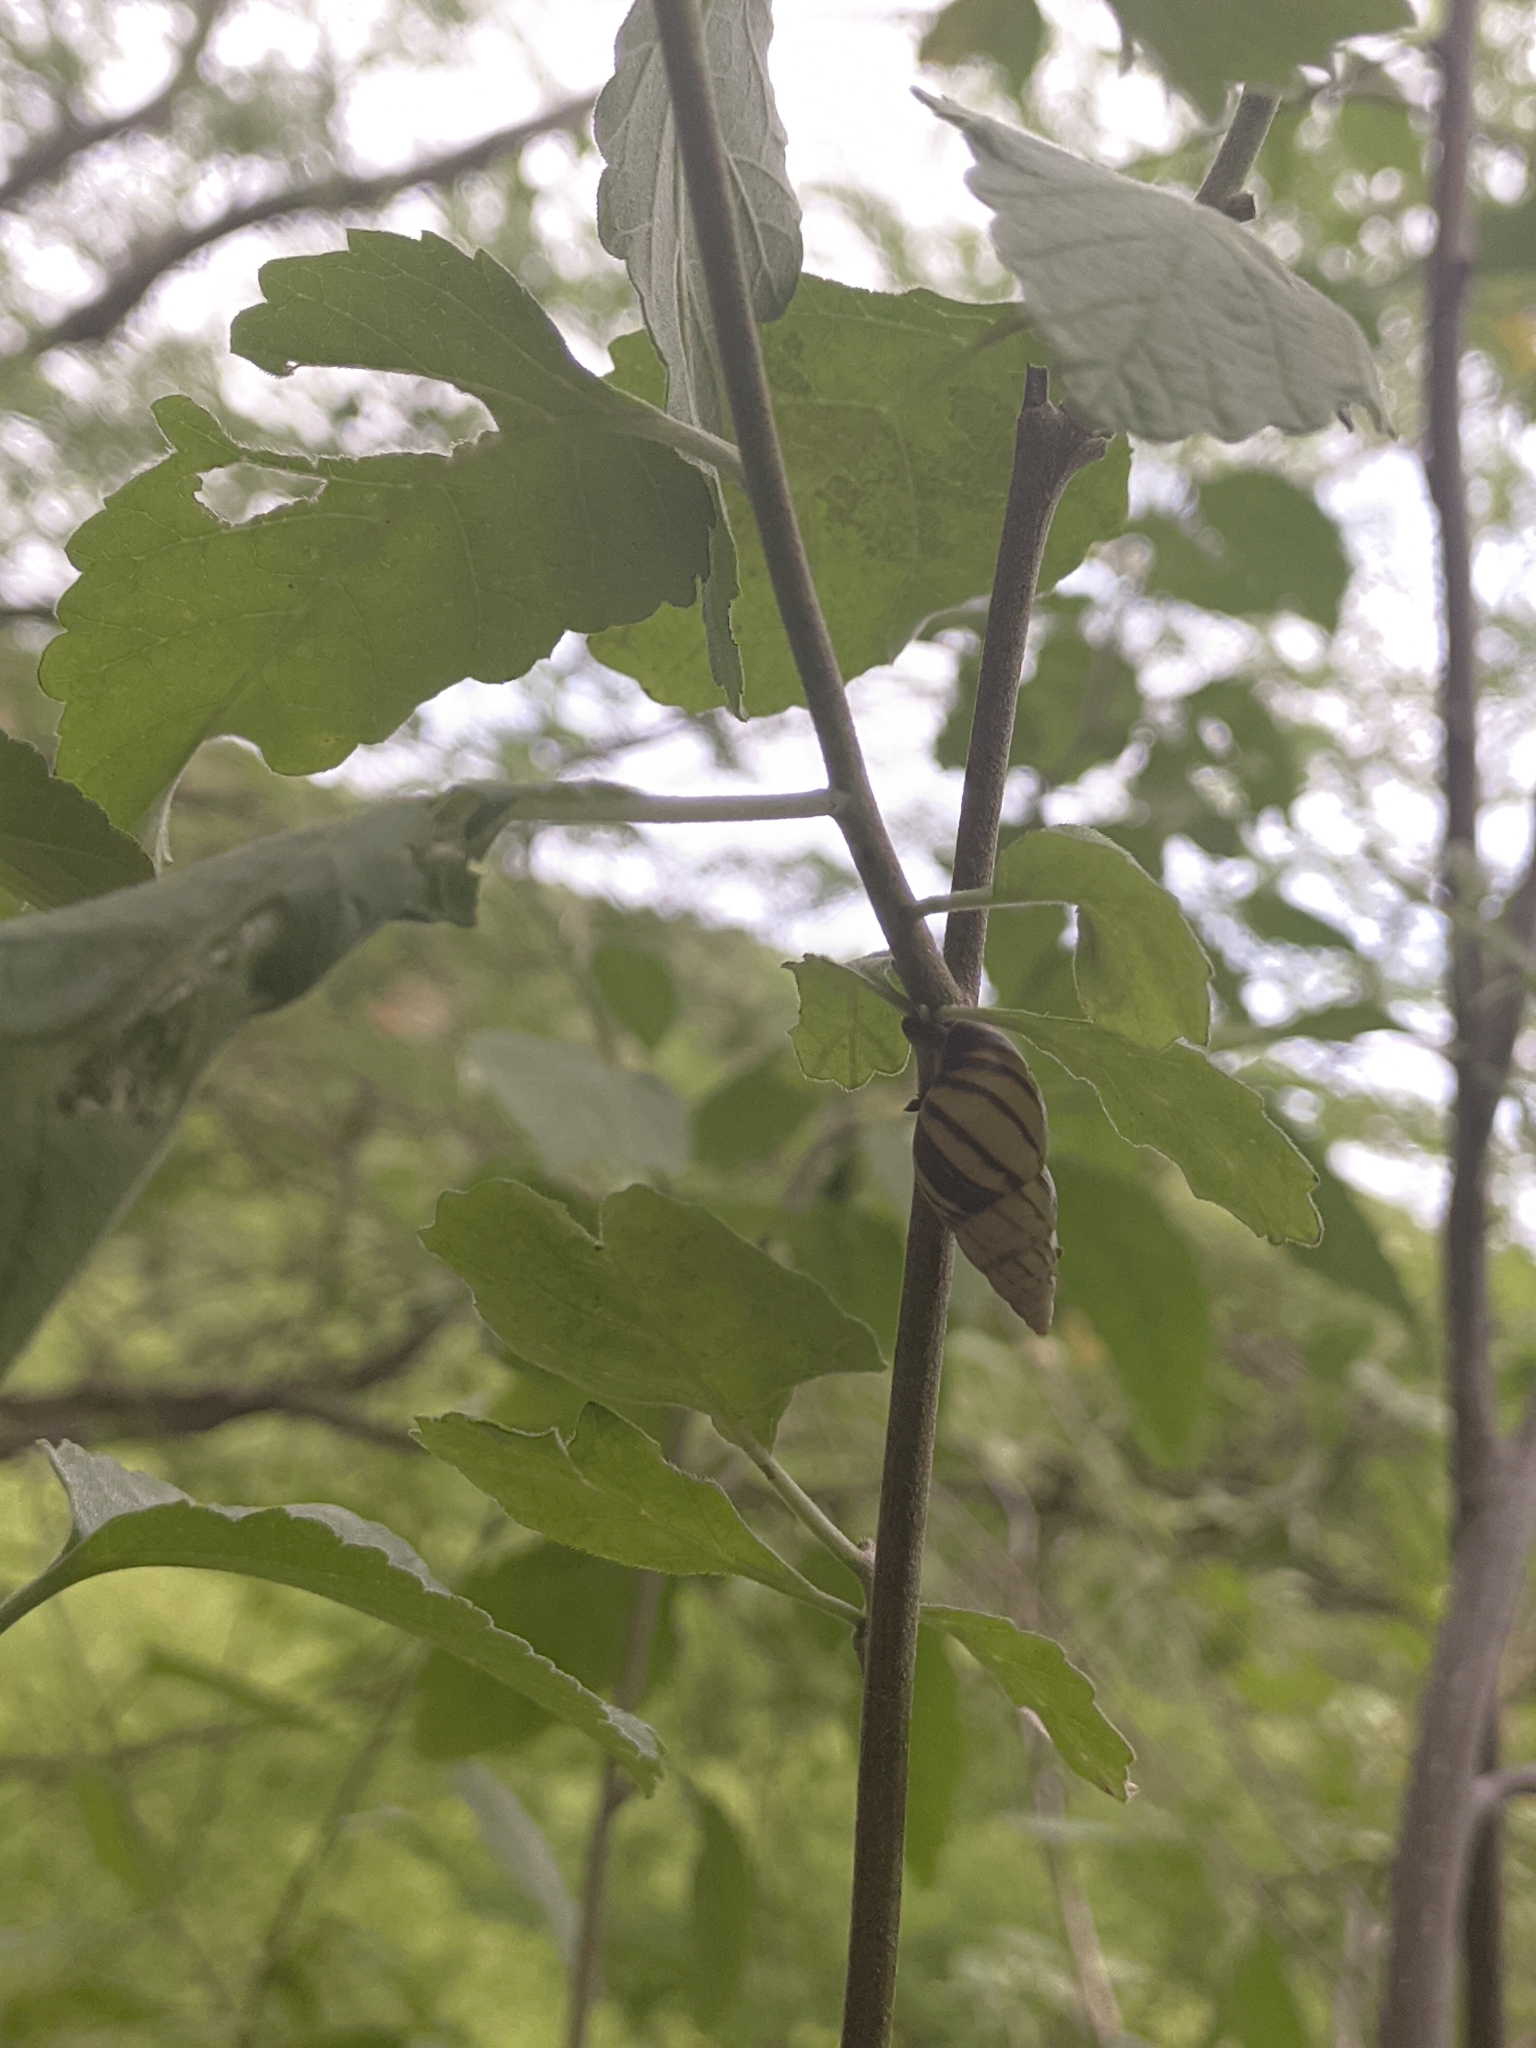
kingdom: Animalia
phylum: Mollusca
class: Gastropoda
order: Stylommatophora
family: Bulimulidae
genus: Drymaeus
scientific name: Drymaeus
